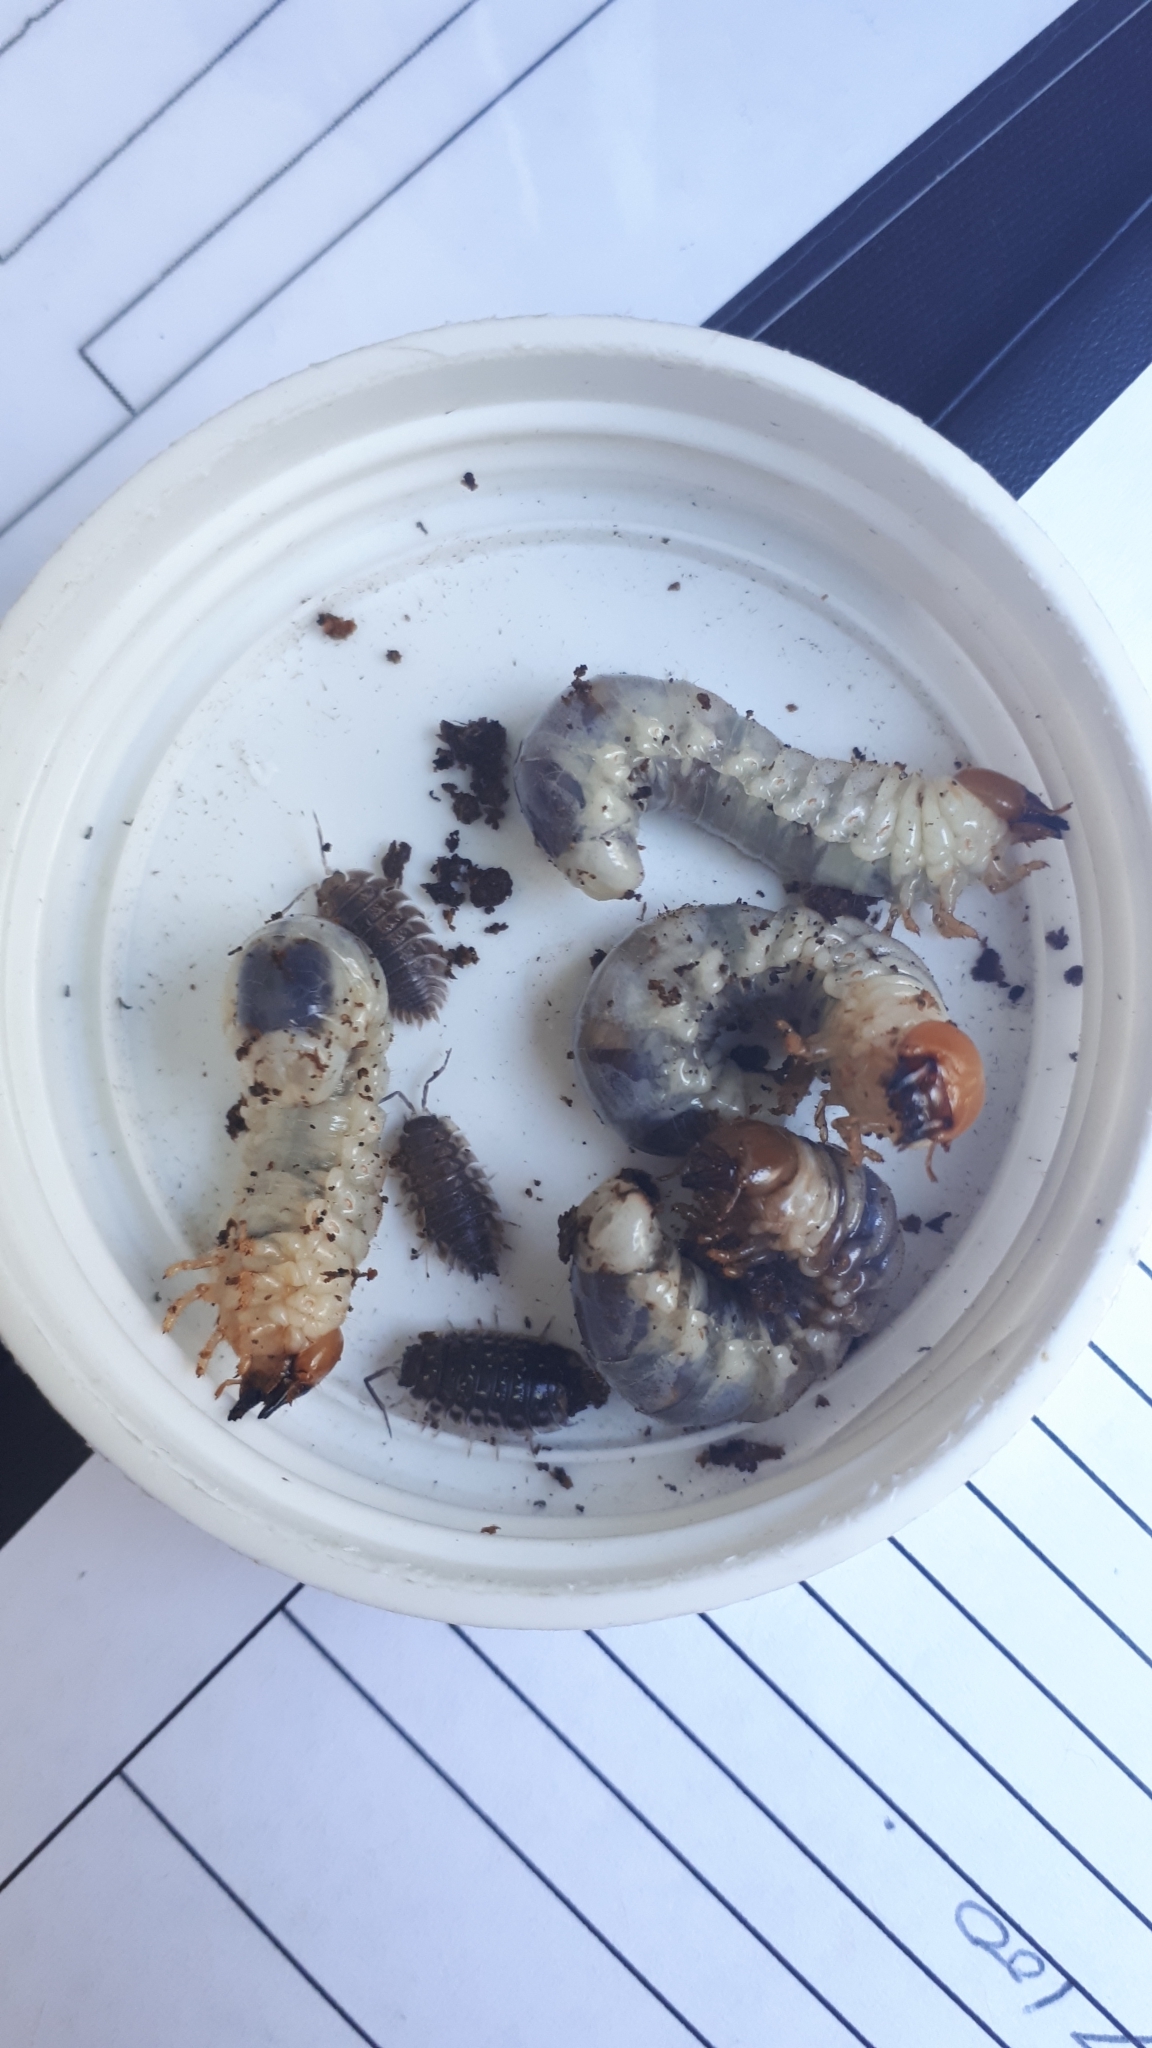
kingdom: Animalia
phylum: Arthropoda
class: Malacostraca
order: Isopoda
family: Oniscidae
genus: Oniscus
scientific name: Oniscus asellus
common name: Common shiny woodlouse
